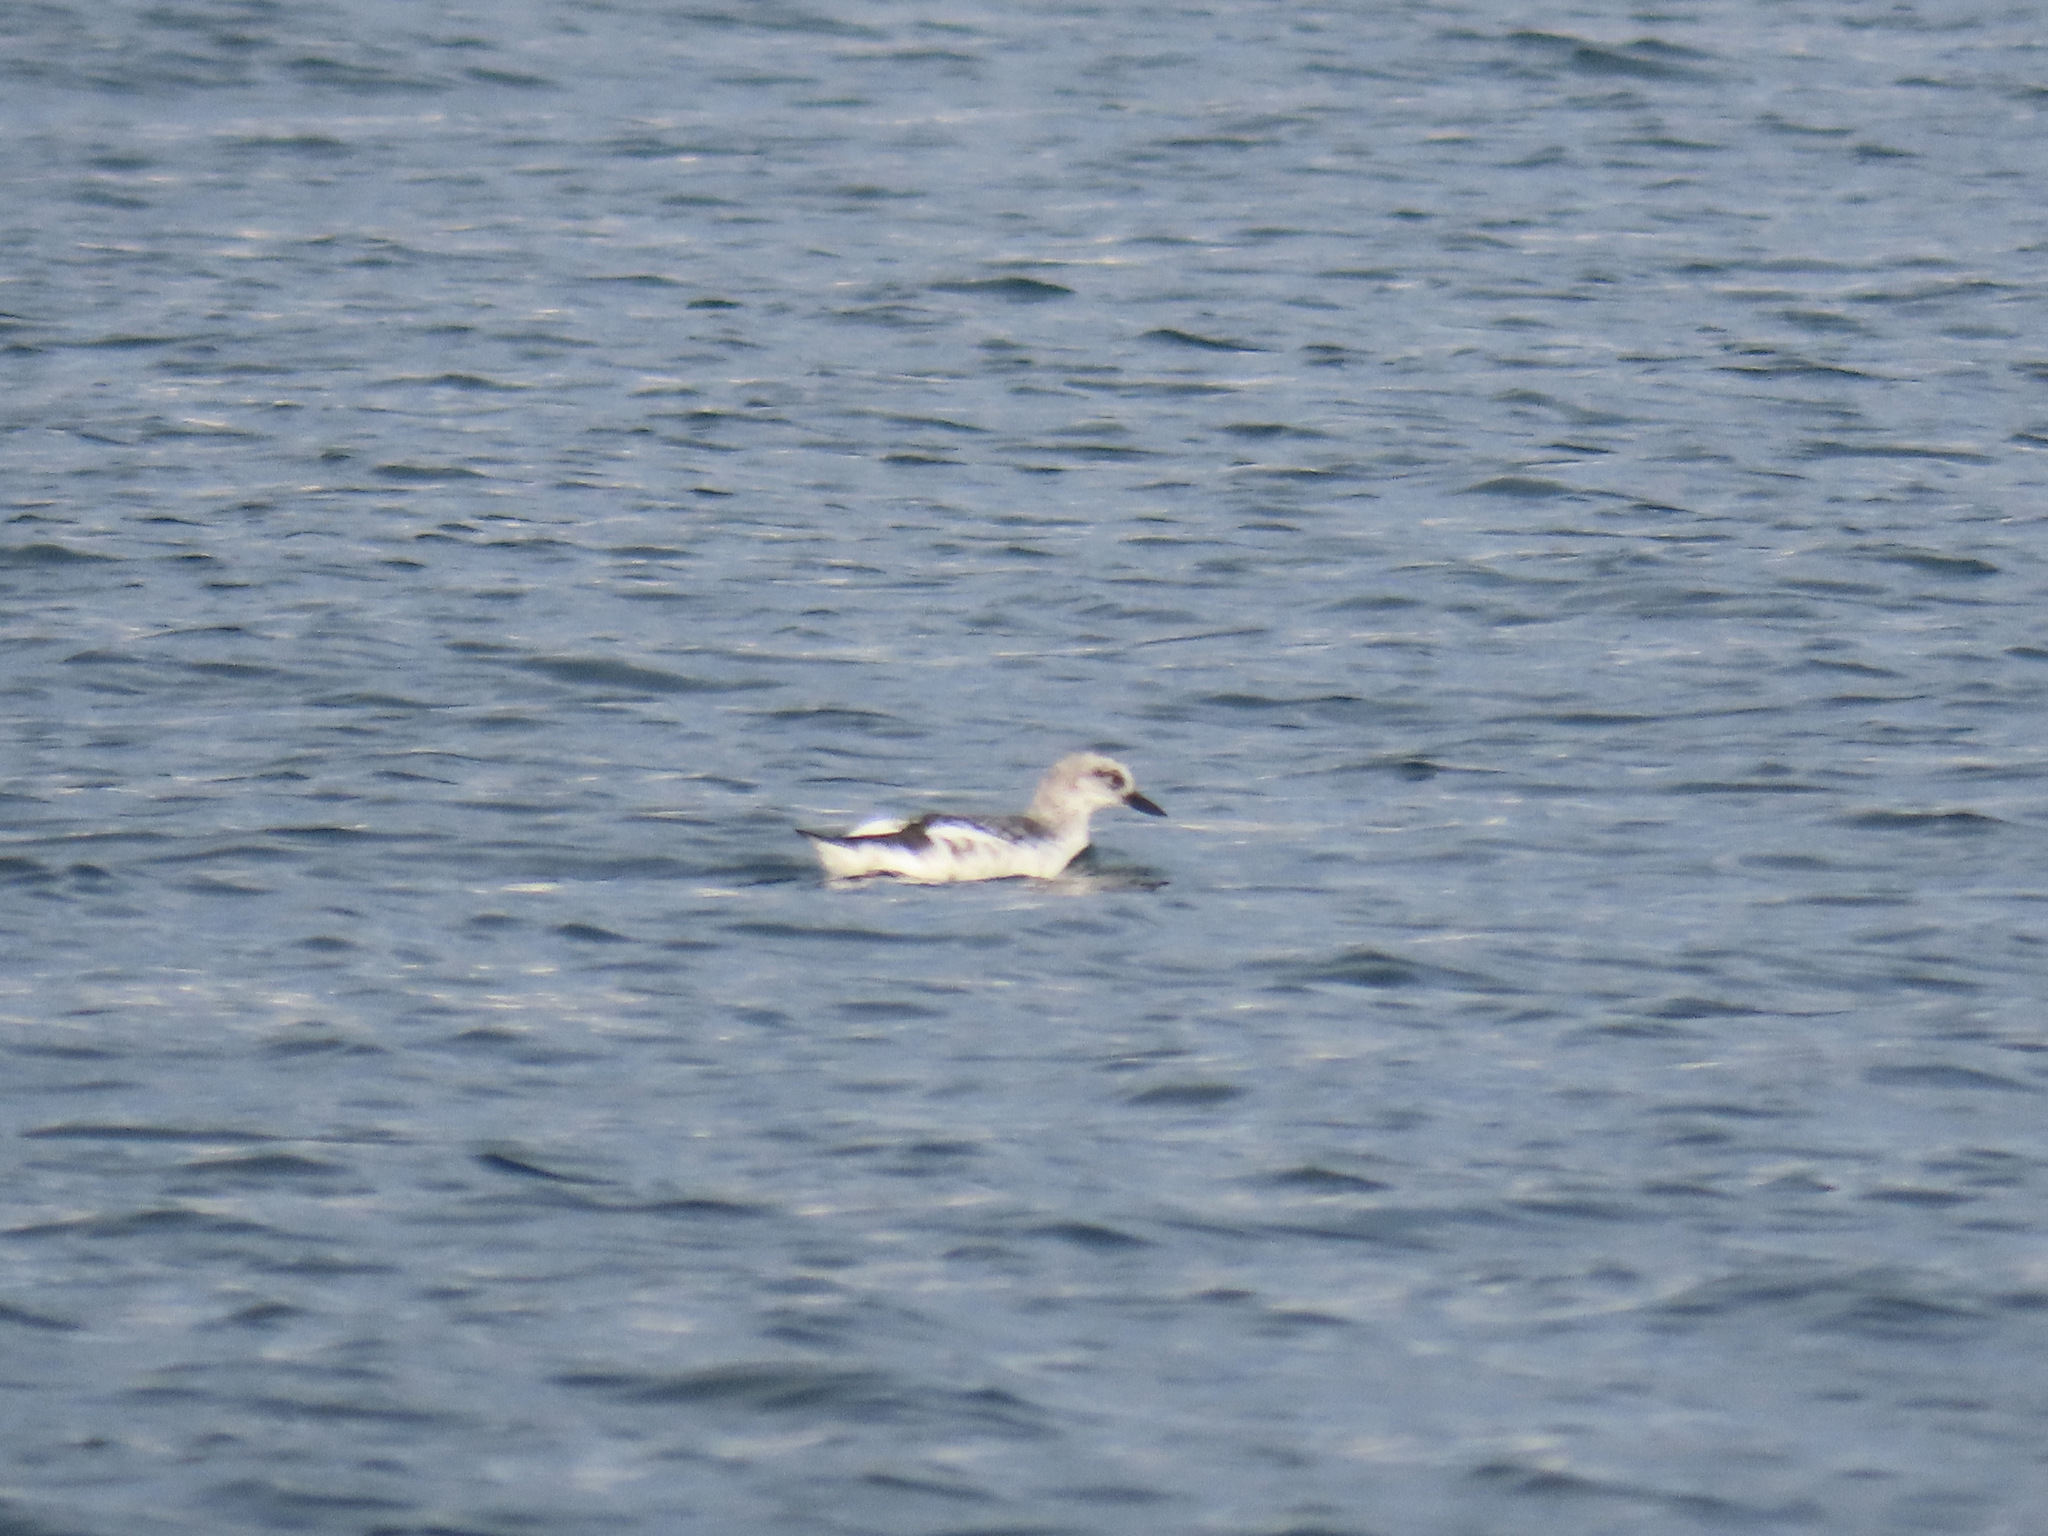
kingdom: Animalia
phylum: Chordata
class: Aves
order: Charadriiformes
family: Alcidae
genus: Cepphus
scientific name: Cepphus columba
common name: Pigeon guillemot
